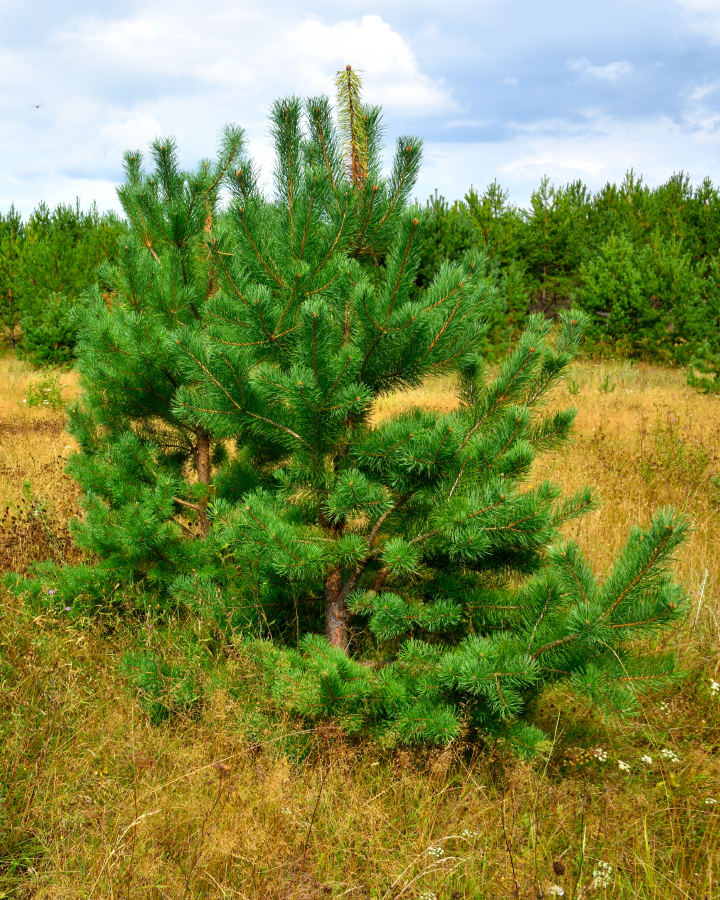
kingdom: Plantae
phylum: Tracheophyta
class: Pinopsida
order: Pinales
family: Pinaceae
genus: Pinus
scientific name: Pinus sylvestris
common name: Scots pine
